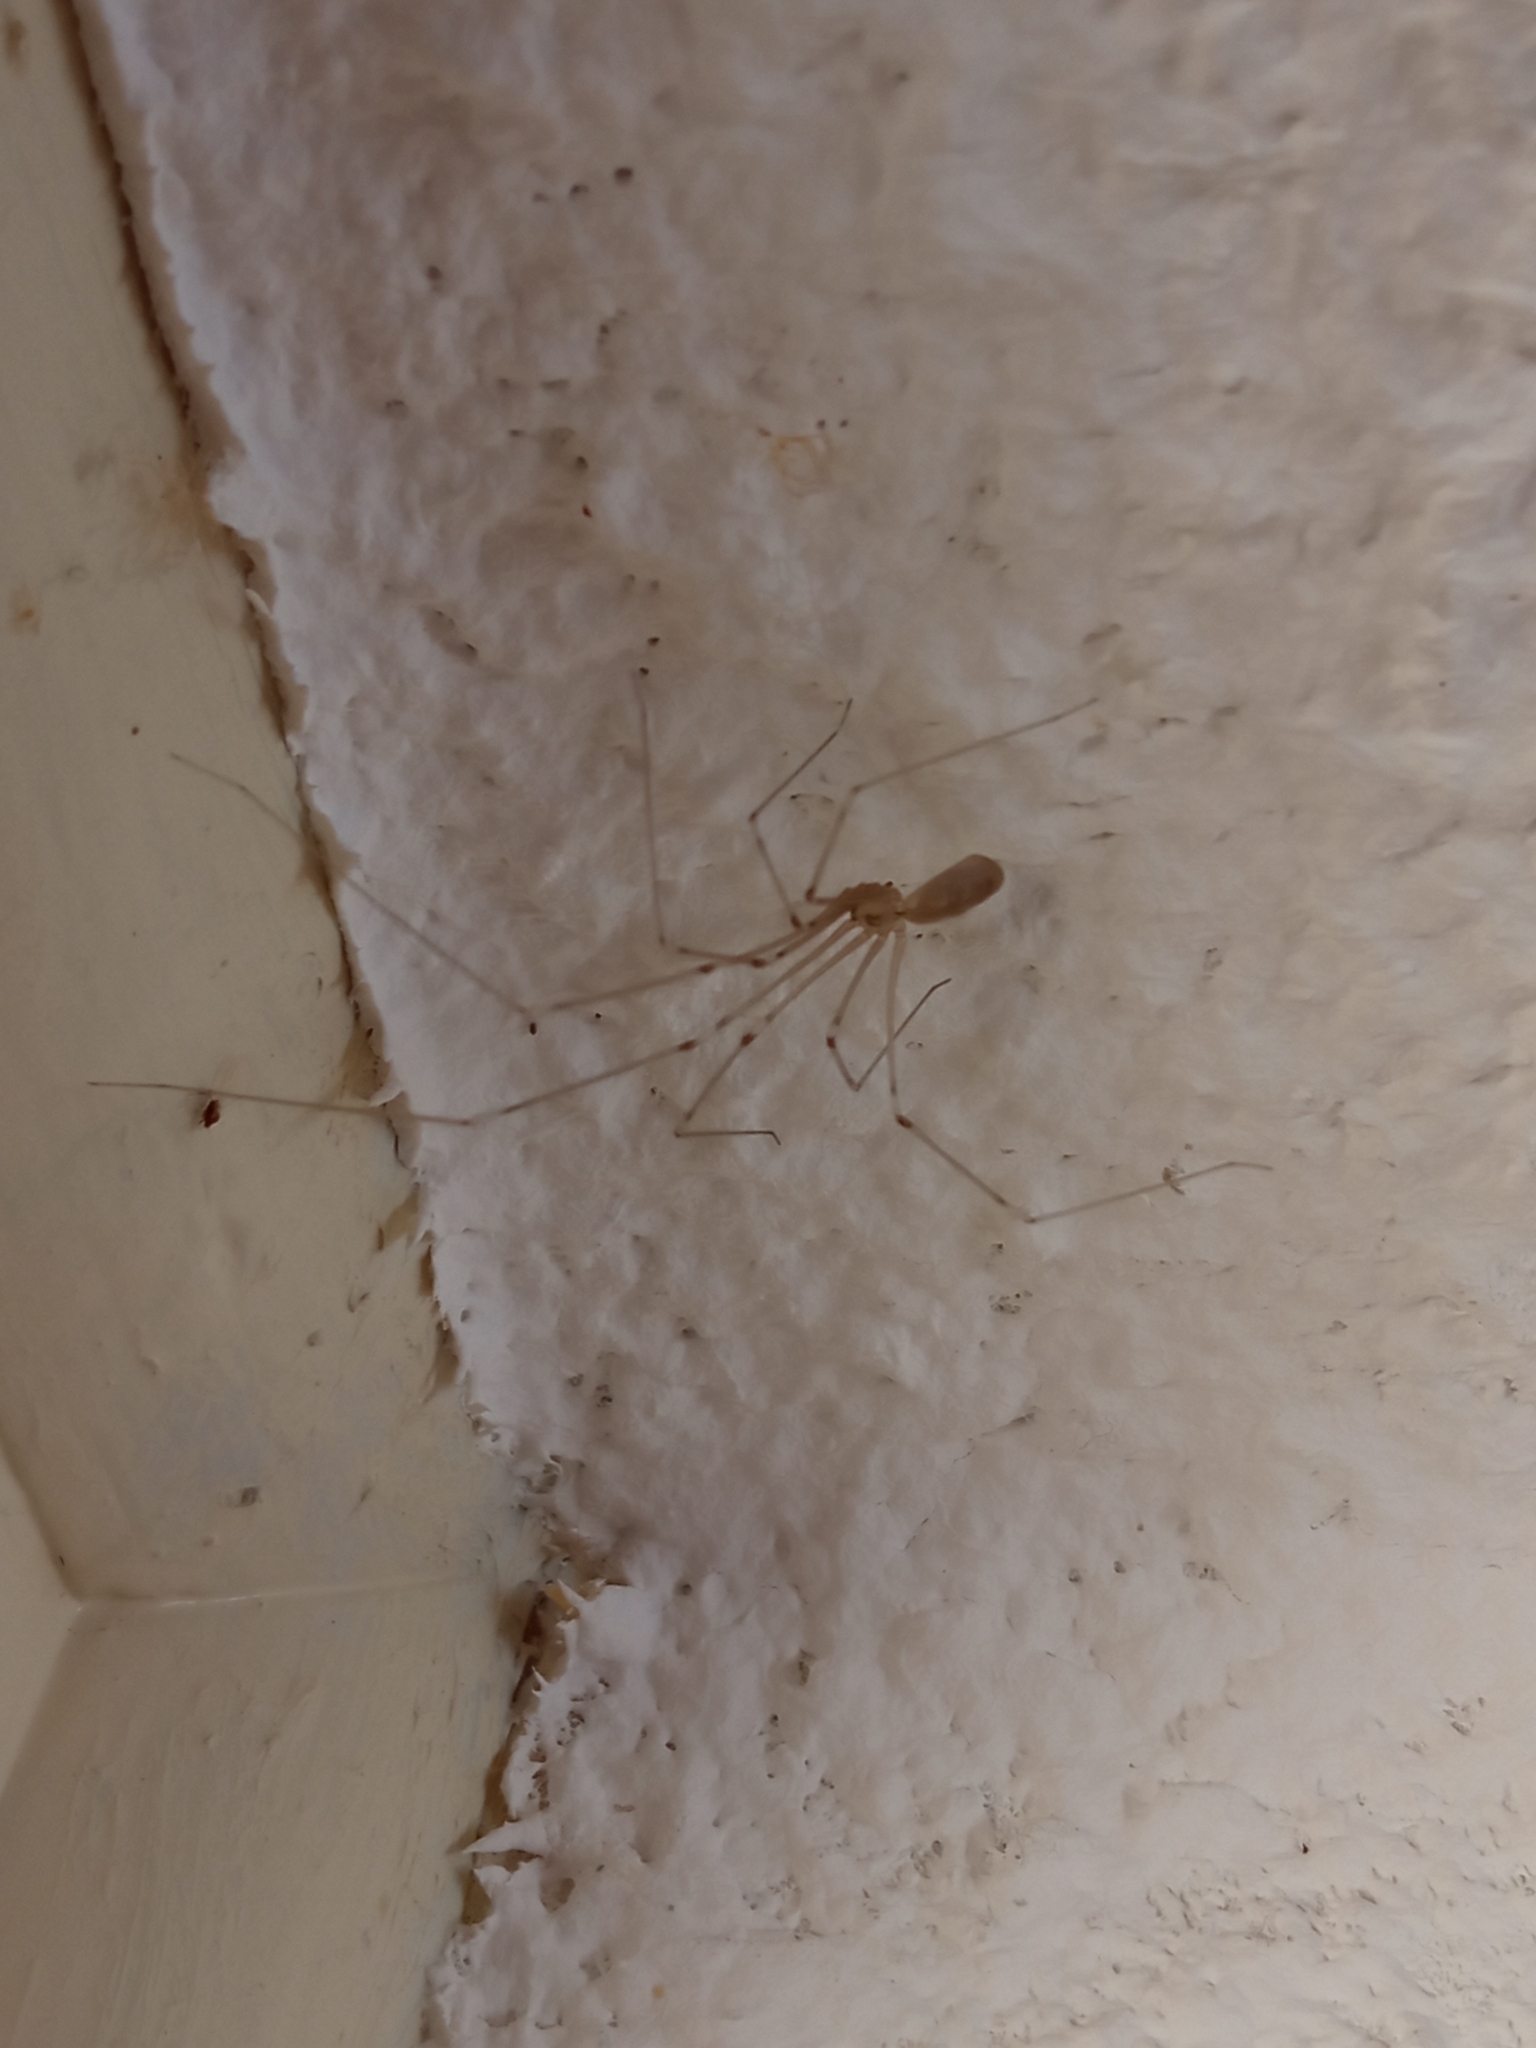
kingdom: Animalia
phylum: Arthropoda
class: Arachnida
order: Araneae
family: Pholcidae
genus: Pholcus
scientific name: Pholcus phalangioides
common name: Longbodied cellar spider
